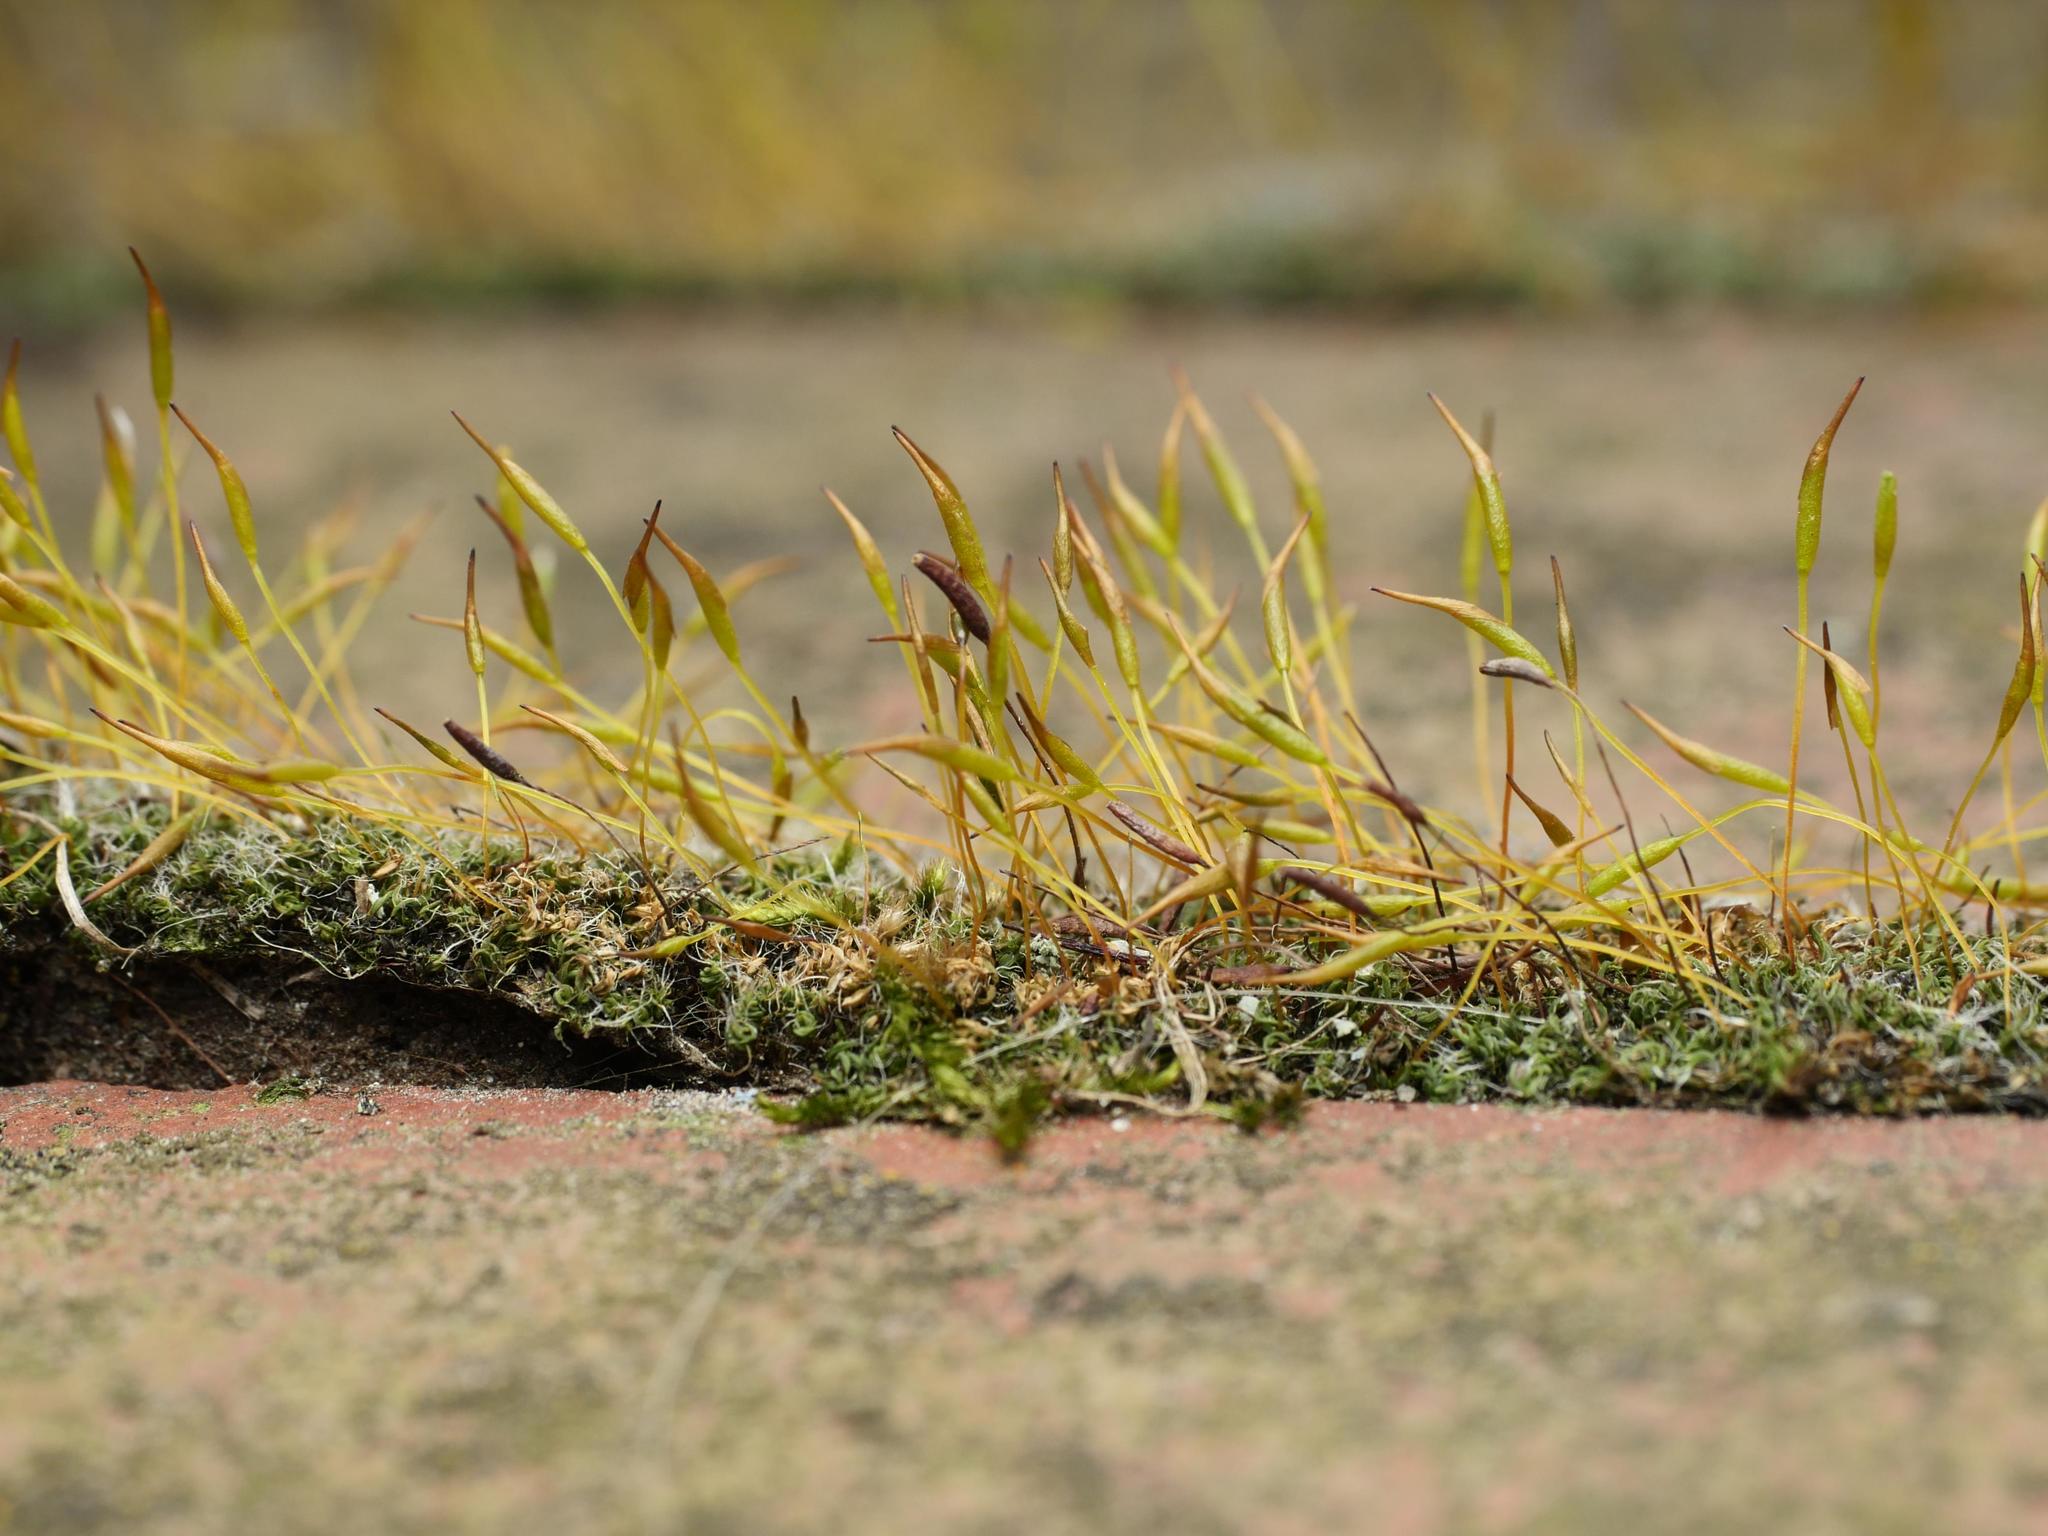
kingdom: Plantae
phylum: Bryophyta
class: Bryopsida
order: Pottiales
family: Pottiaceae
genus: Tortula
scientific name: Tortula muralis
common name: Wall screw-moss
